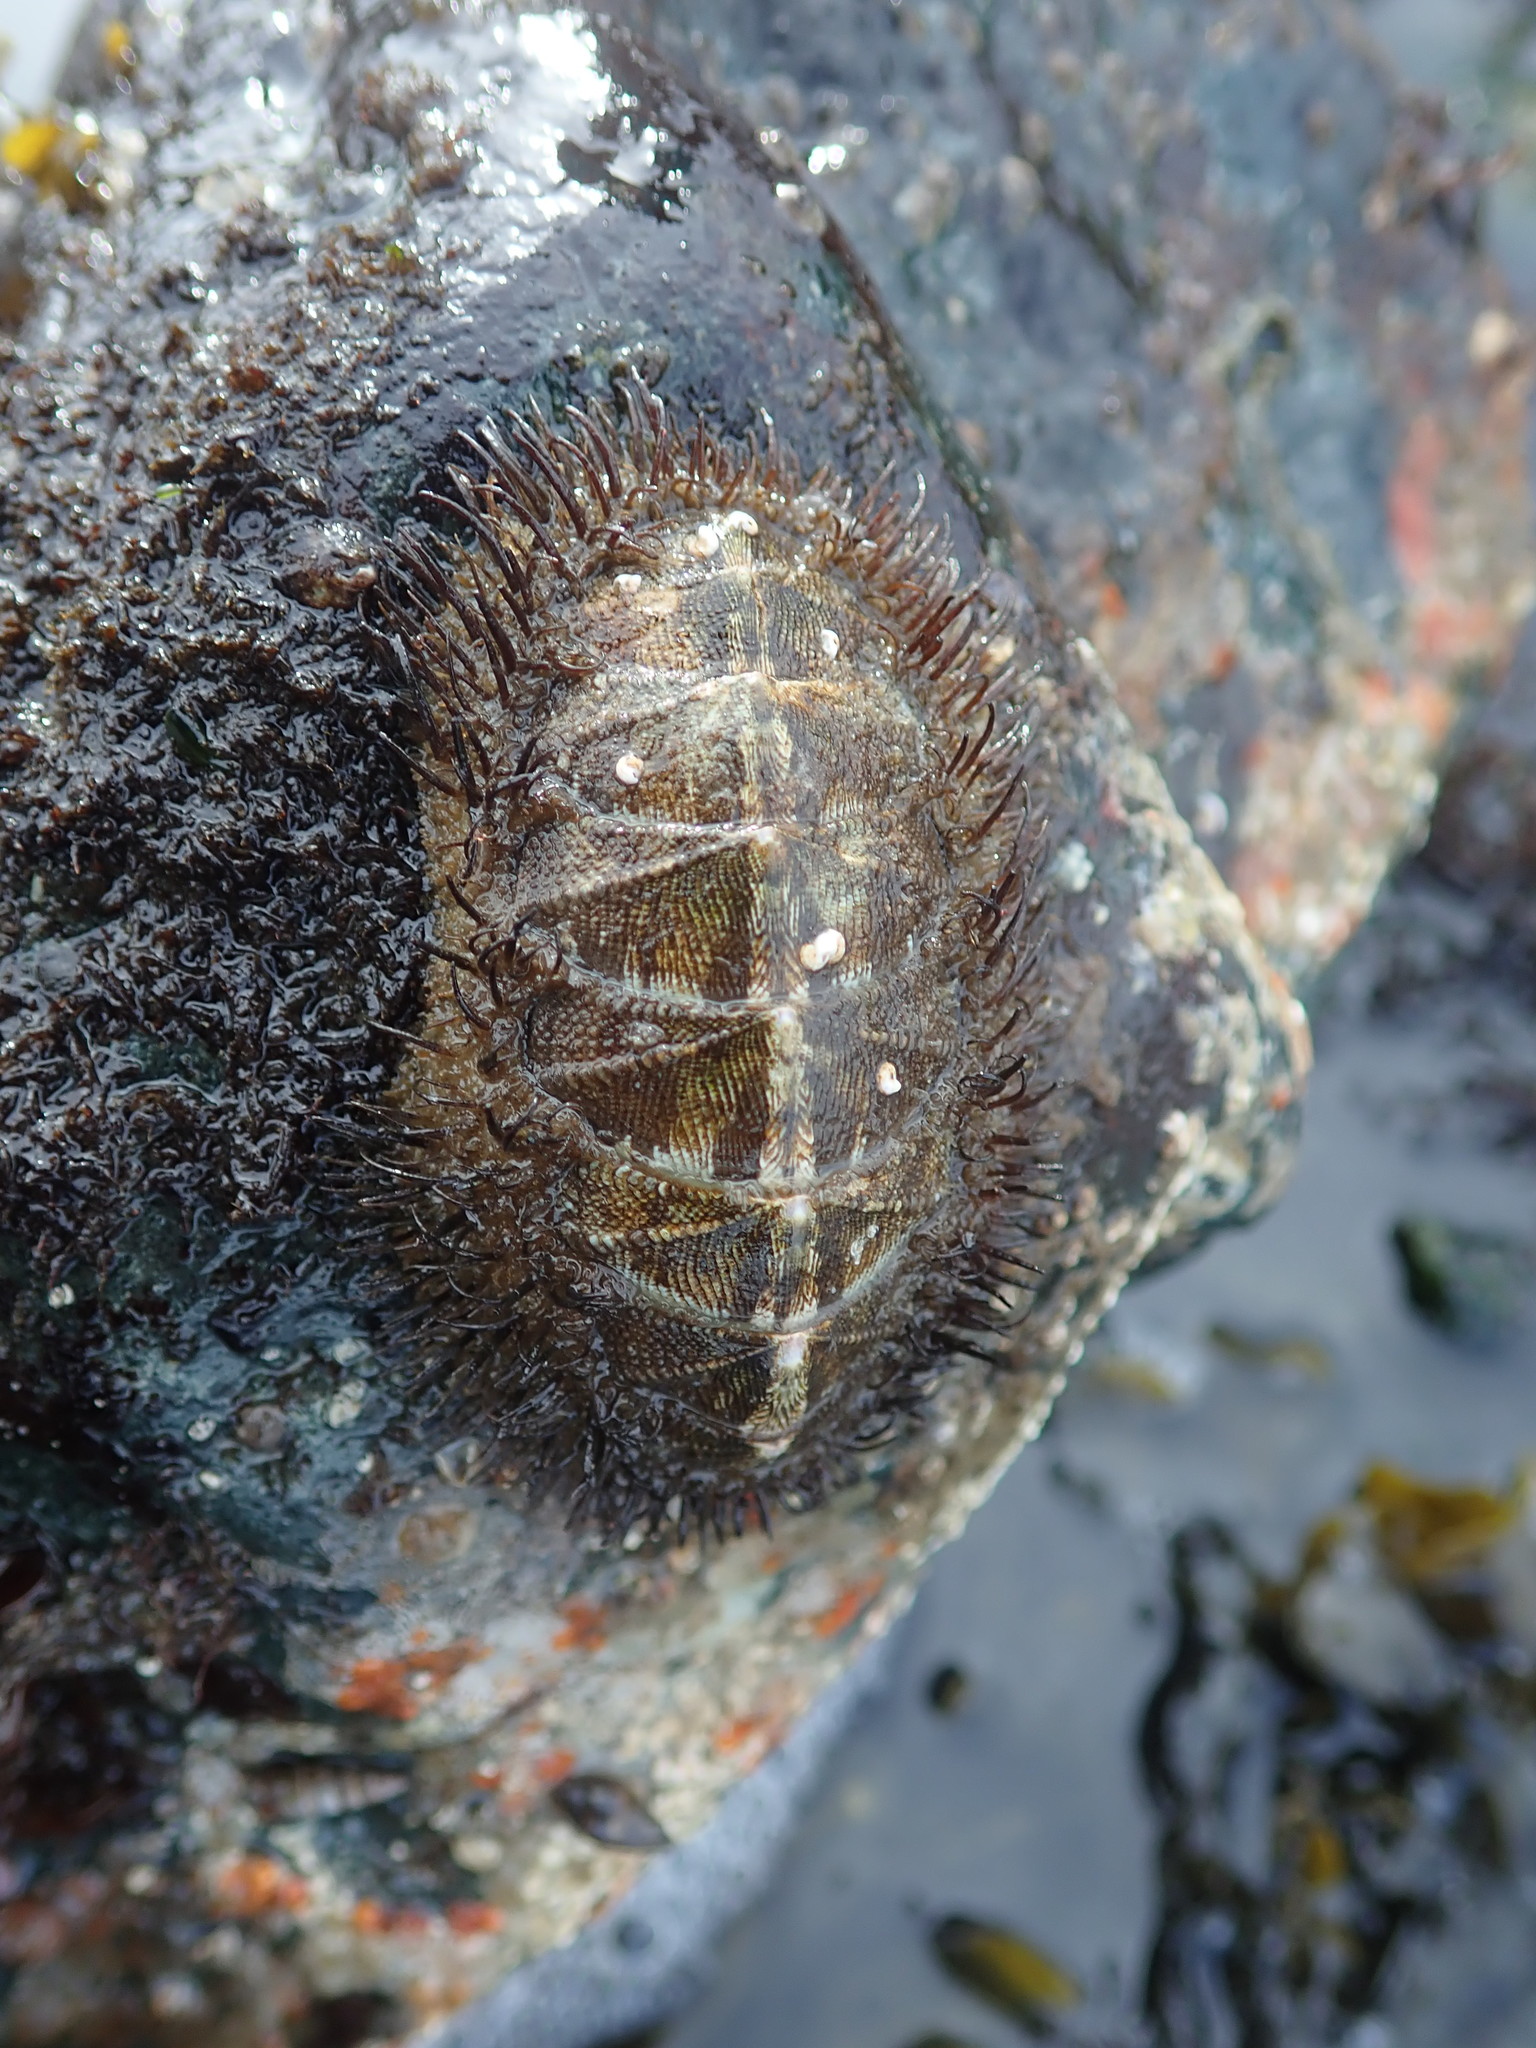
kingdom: Animalia
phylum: Mollusca
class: Polyplacophora
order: Chitonida
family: Mopaliidae
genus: Mopalia
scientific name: Mopalia muscosa
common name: Mossy chiton
